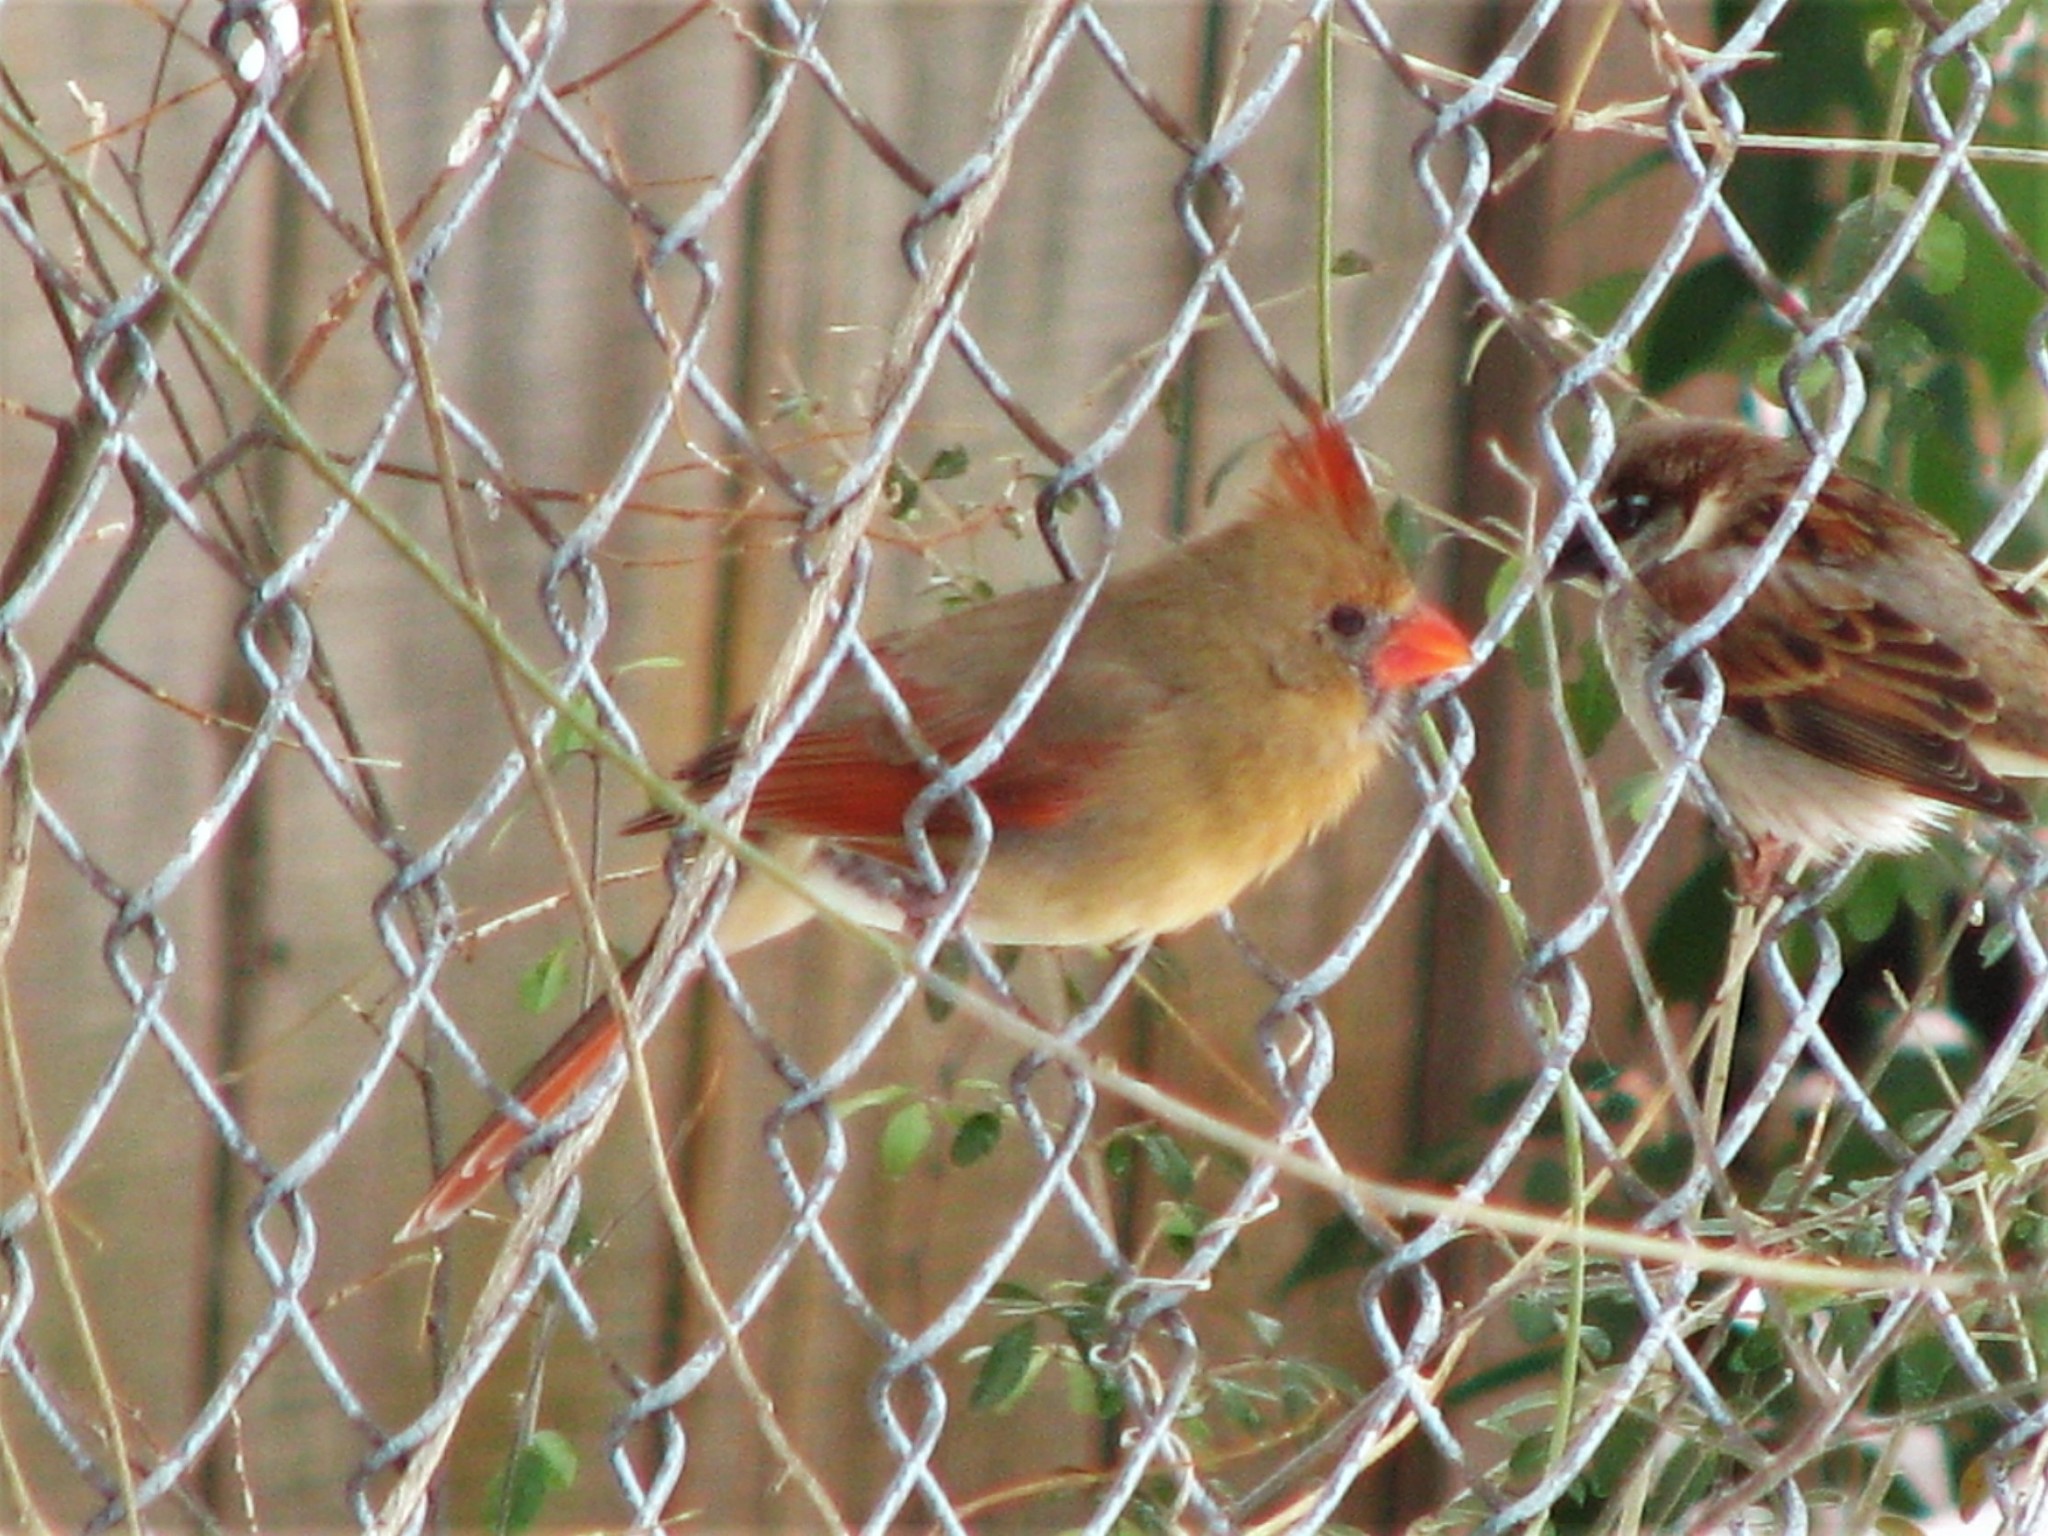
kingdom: Animalia
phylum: Chordata
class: Aves
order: Passeriformes
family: Cardinalidae
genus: Cardinalis
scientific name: Cardinalis cardinalis
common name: Northern cardinal
